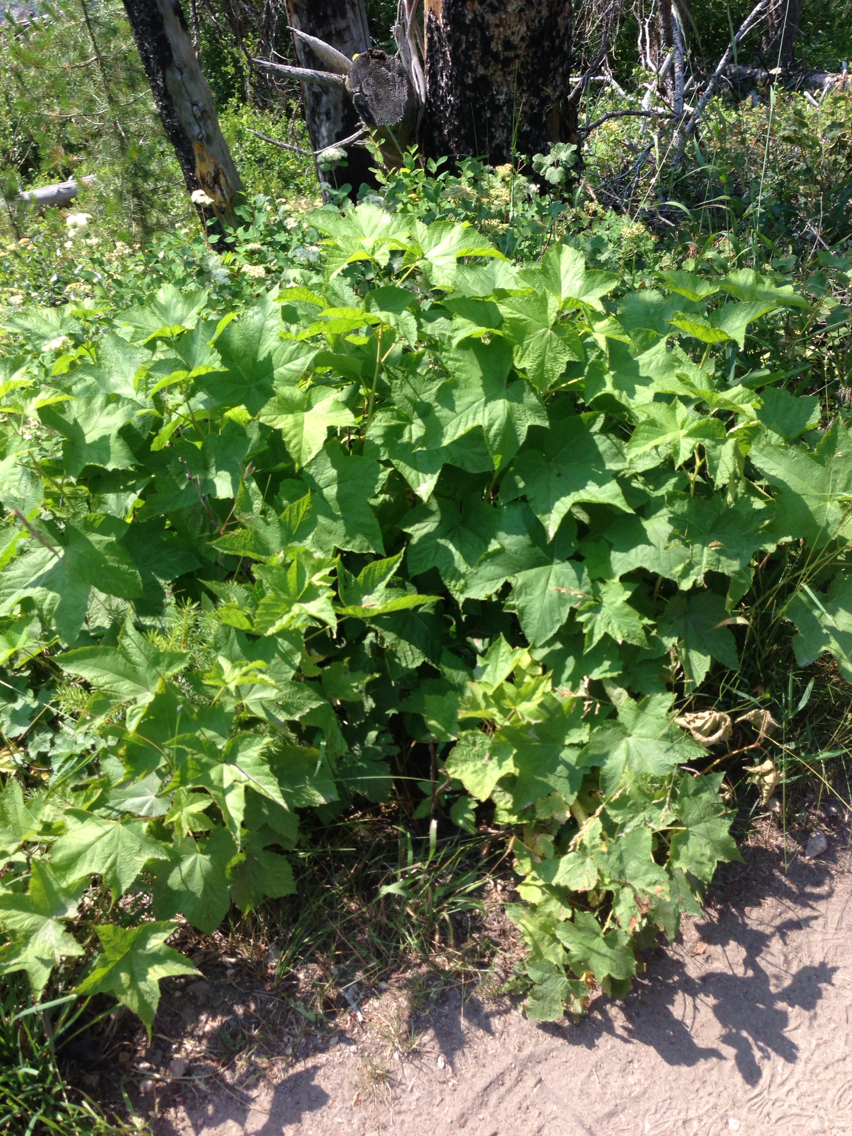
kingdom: Plantae
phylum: Tracheophyta
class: Magnoliopsida
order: Rosales
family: Rosaceae
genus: Rubus
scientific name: Rubus parviflorus
